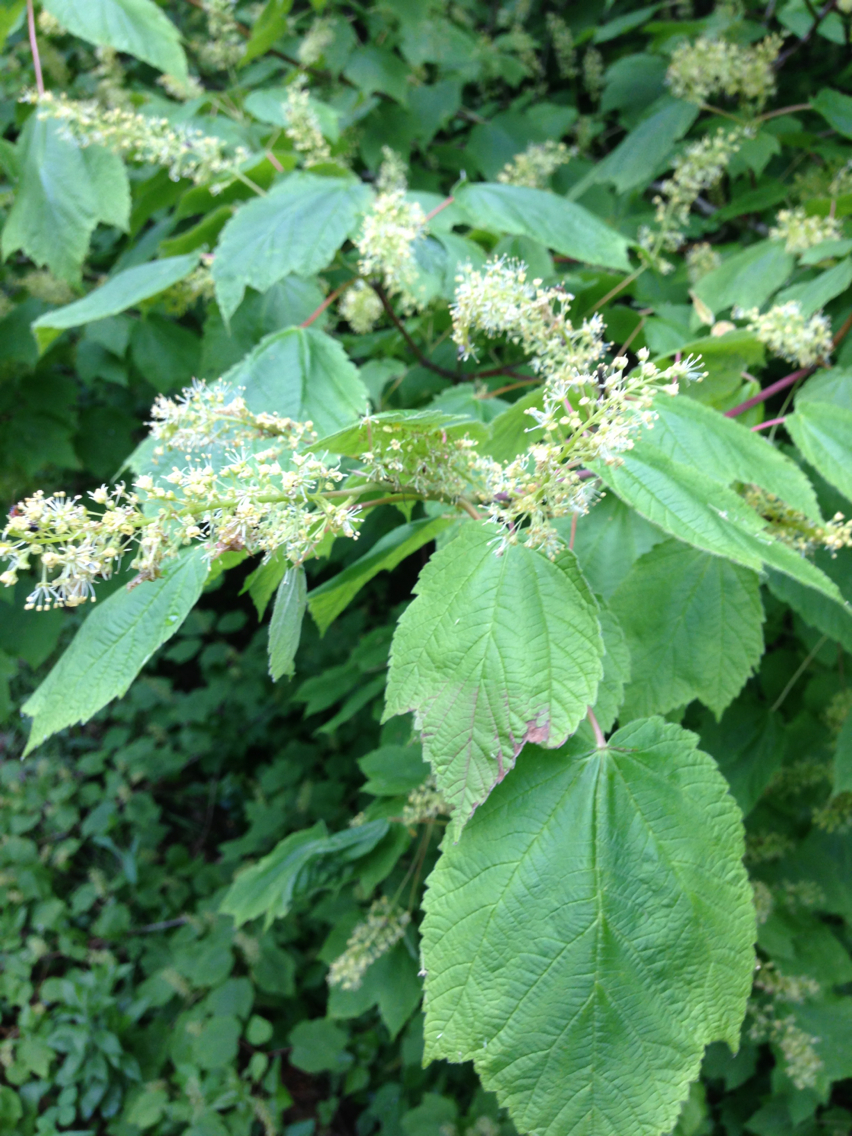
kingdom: Plantae
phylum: Tracheophyta
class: Magnoliopsida
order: Sapindales
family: Sapindaceae
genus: Acer
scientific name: Acer spicatum
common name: Mountain maple
